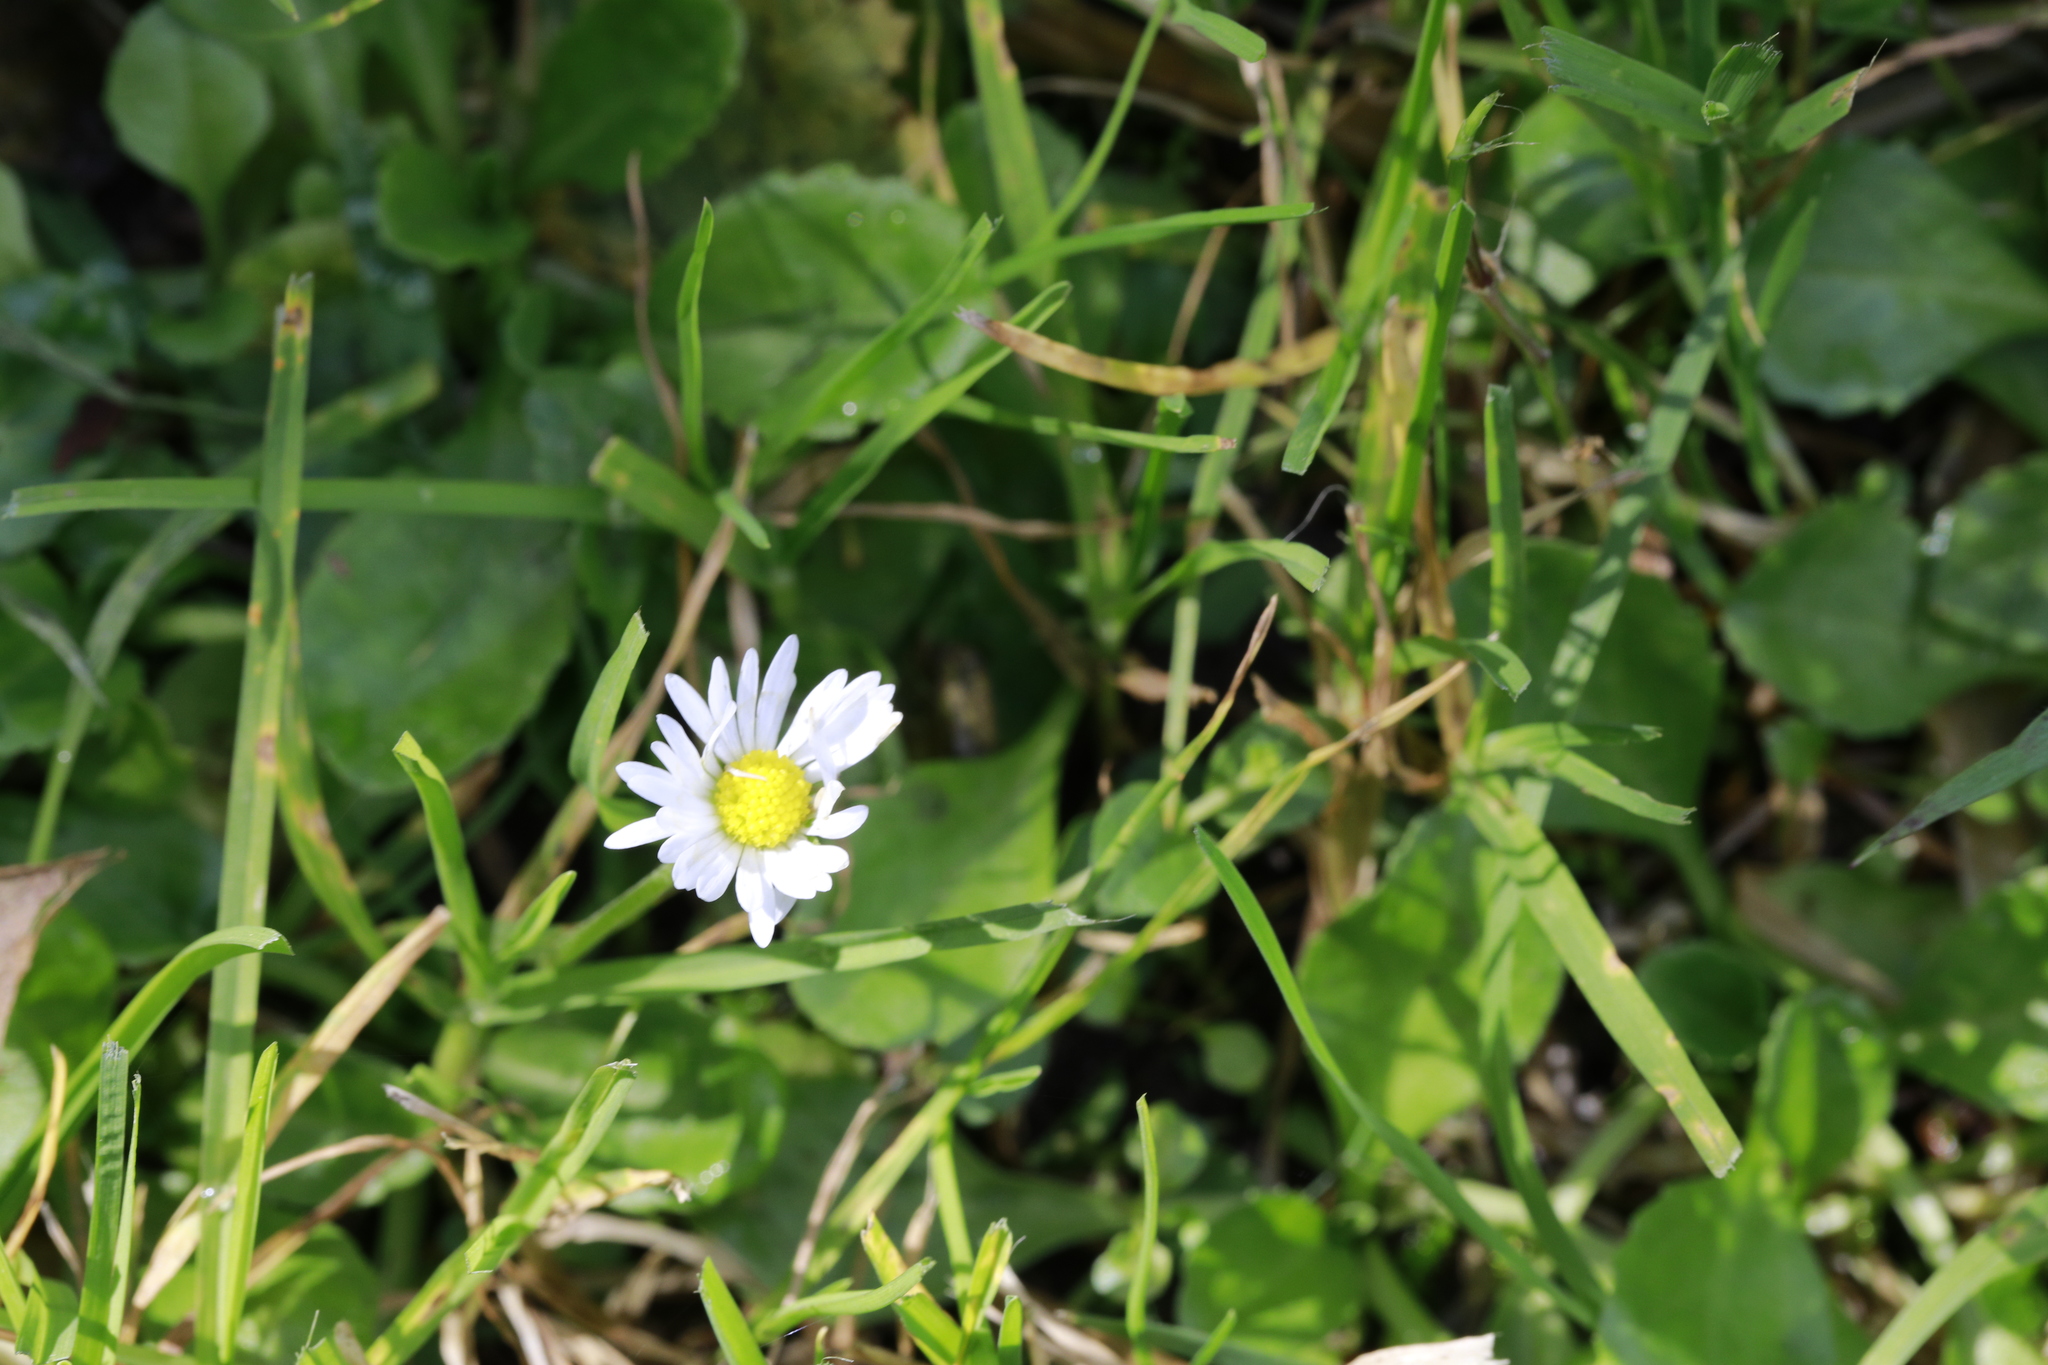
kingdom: Plantae
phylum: Tracheophyta
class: Magnoliopsida
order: Asterales
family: Asteraceae
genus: Bellis
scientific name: Bellis perennis
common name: Lawndaisy
